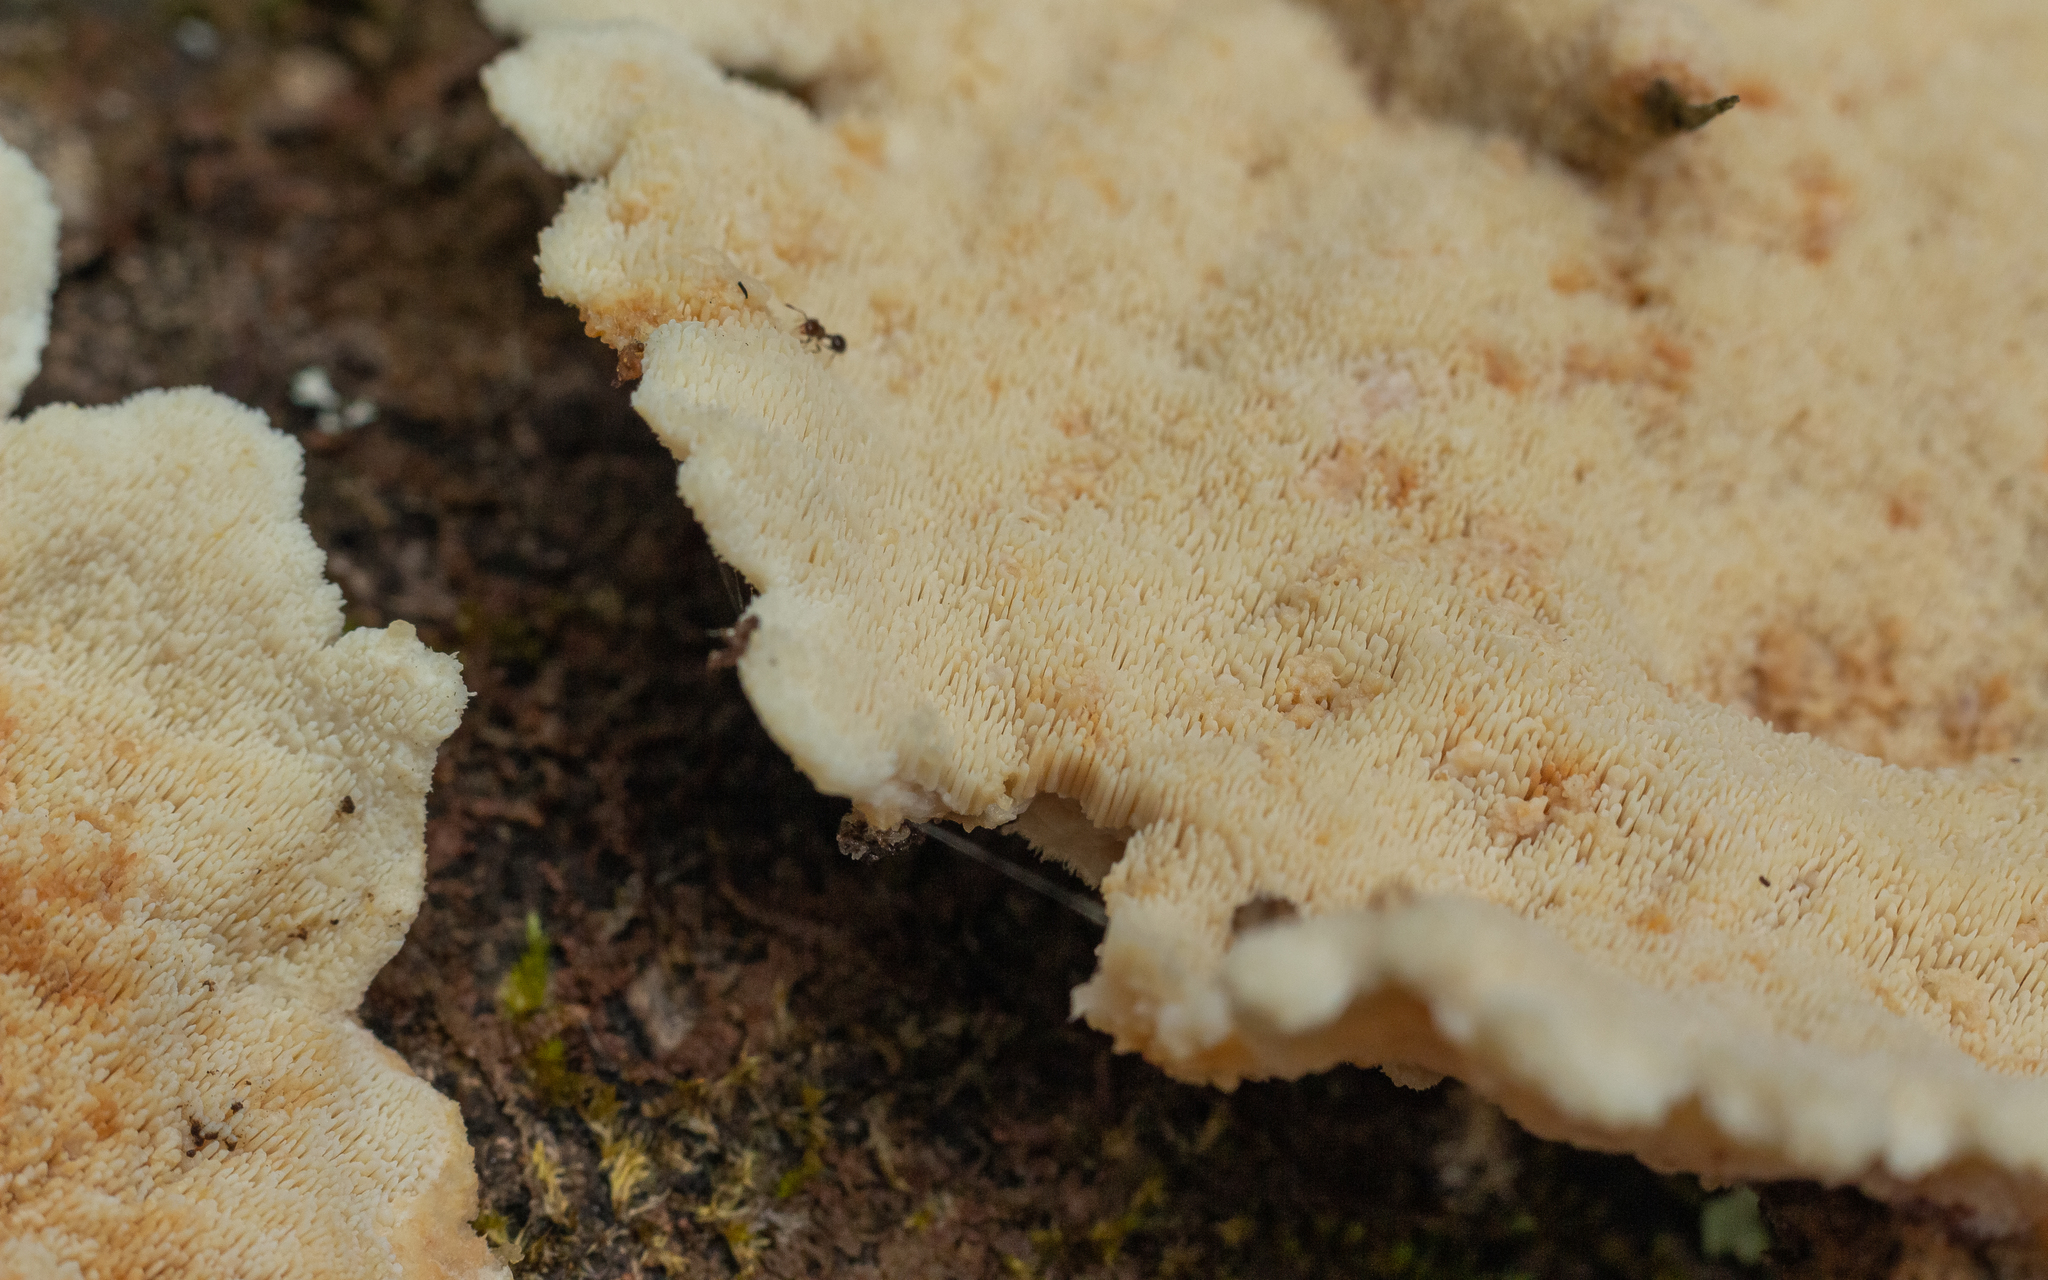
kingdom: Fungi
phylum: Basidiomycota
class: Agaricomycetes
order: Polyporales
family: Meruliaceae
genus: Donkia
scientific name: Donkia pulcherrima
